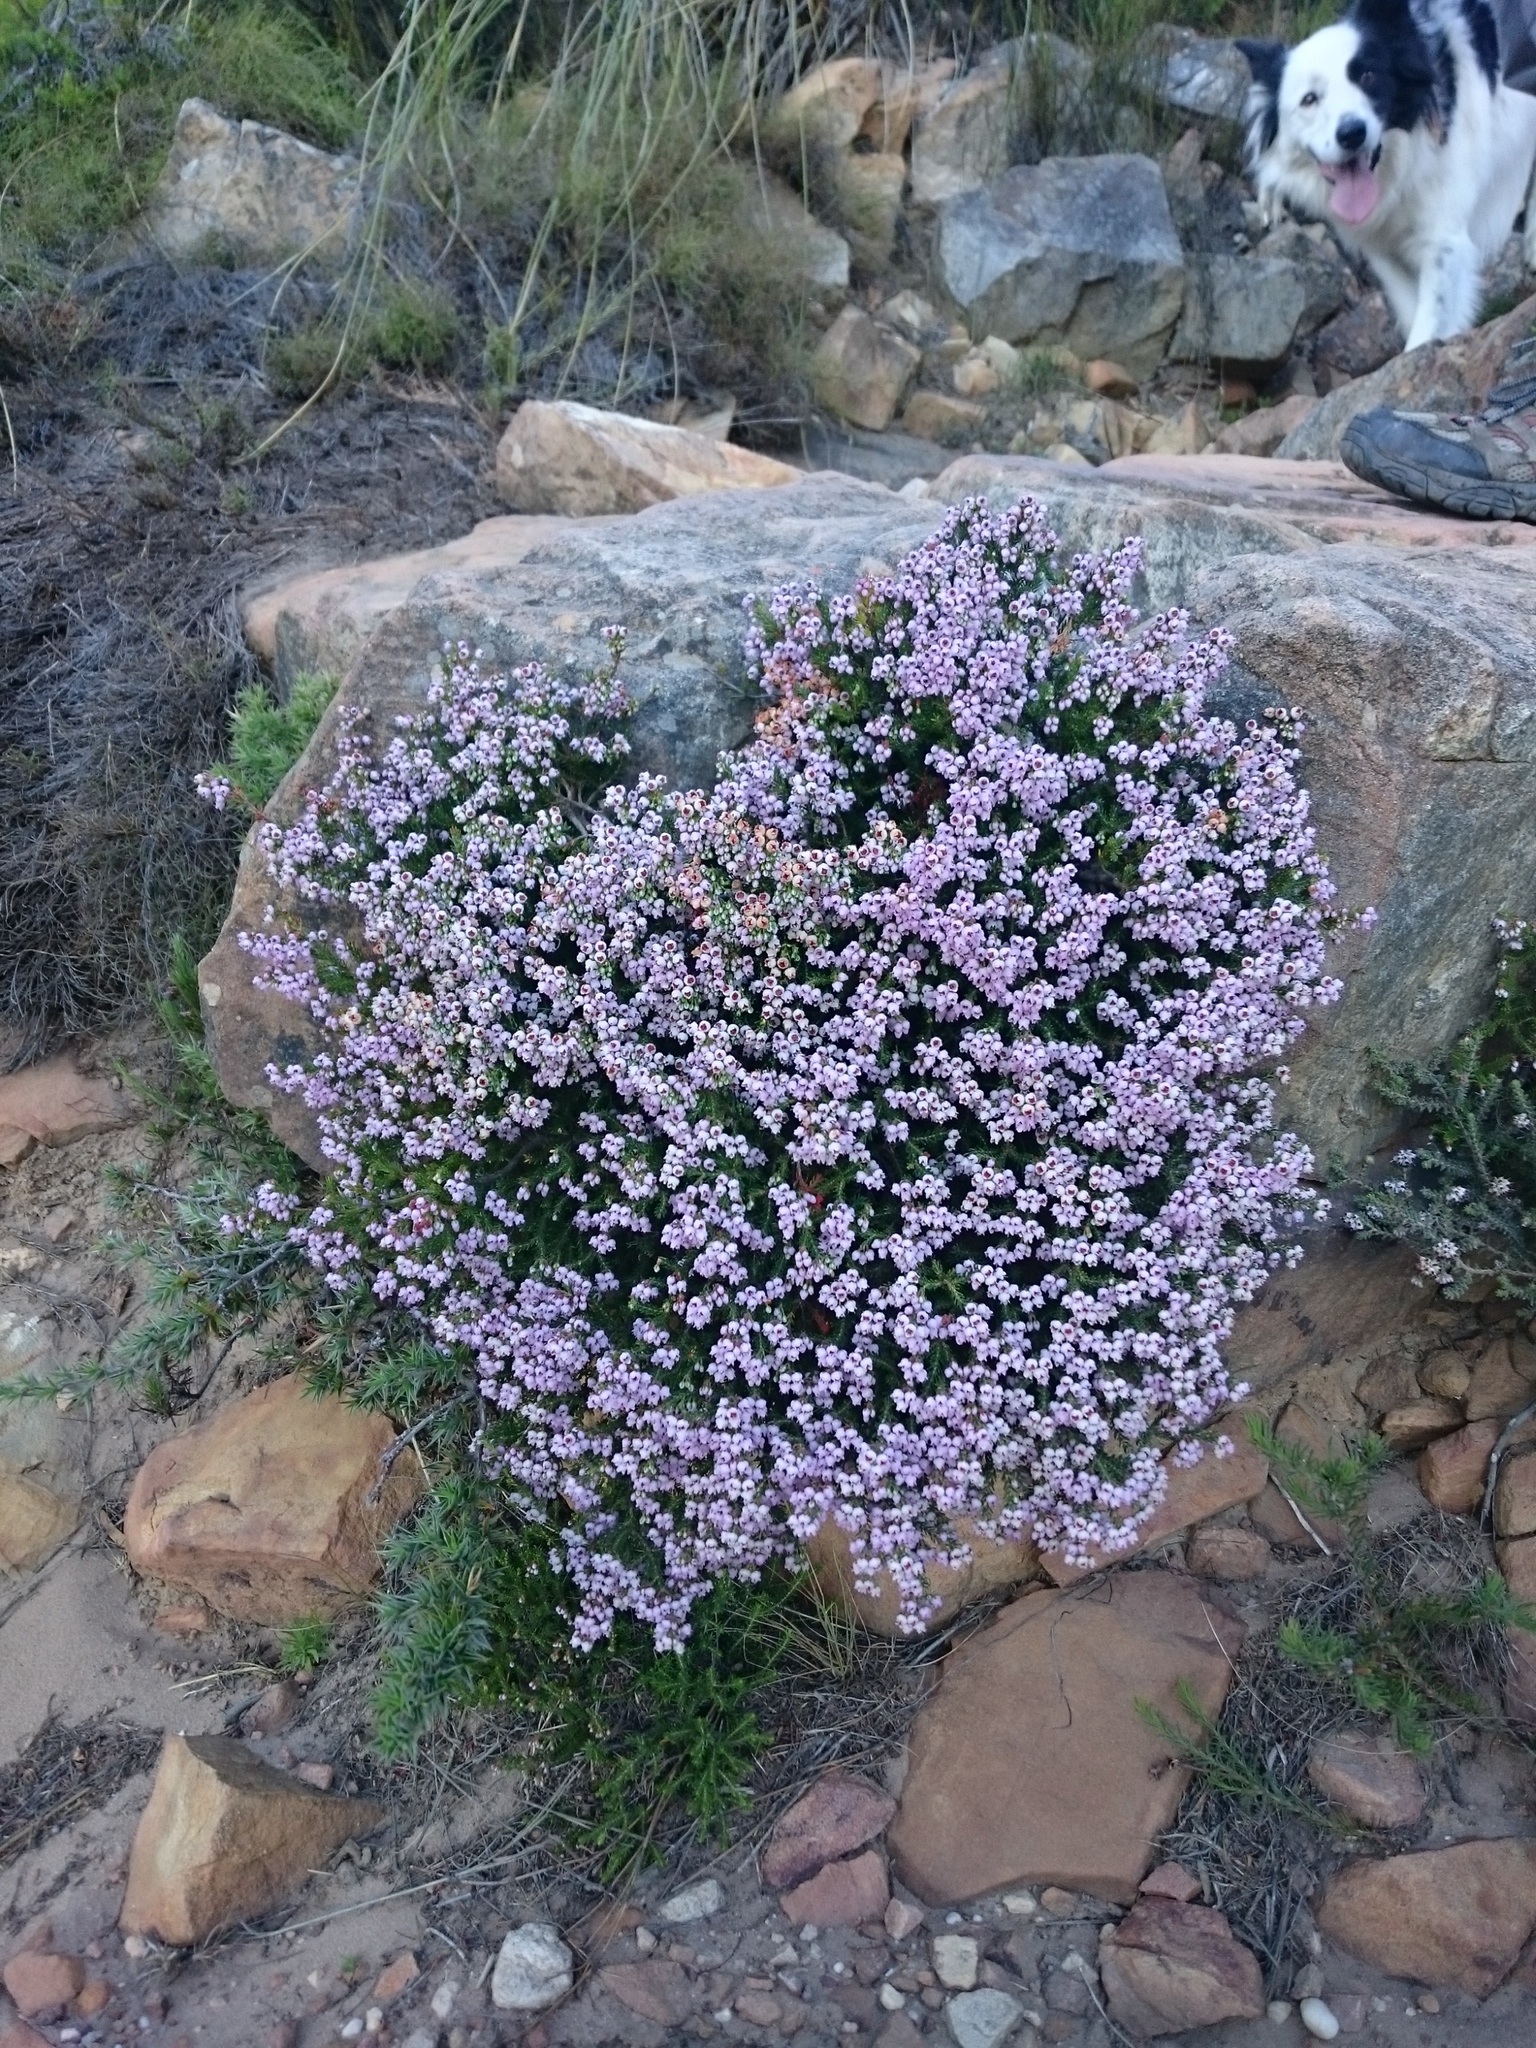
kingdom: Plantae
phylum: Tracheophyta
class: Magnoliopsida
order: Ericales
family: Ericaceae
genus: Erica
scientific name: Erica curvirostris
